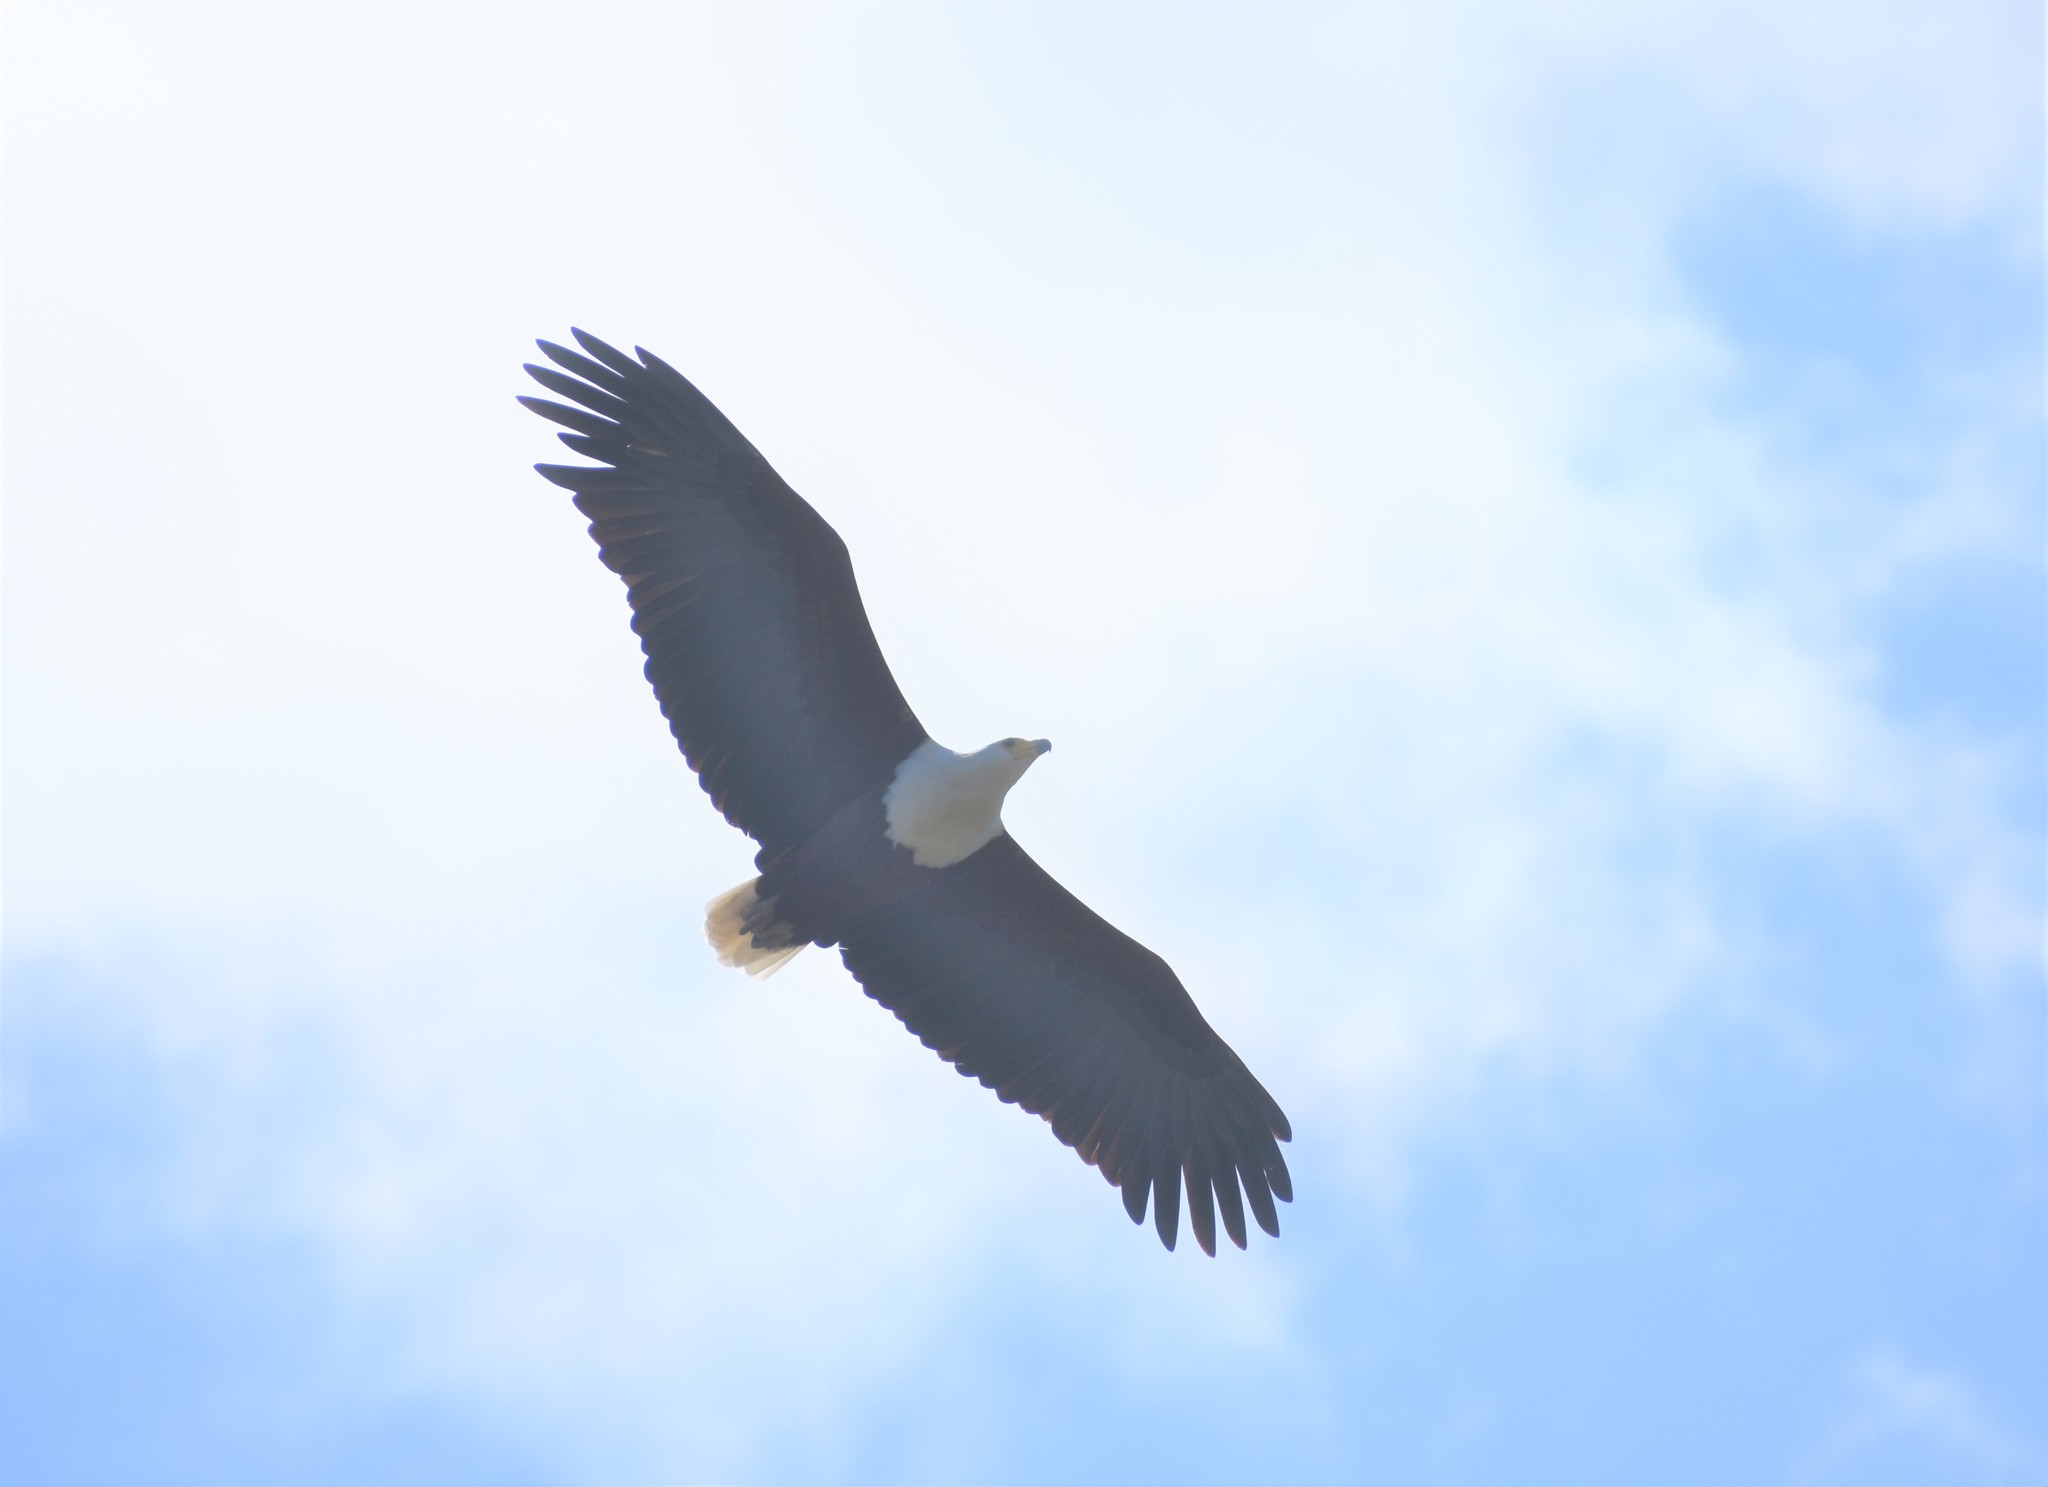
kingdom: Animalia
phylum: Chordata
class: Aves
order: Accipitriformes
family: Accipitridae
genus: Haliaeetus
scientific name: Haliaeetus vocifer
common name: African fish eagle
